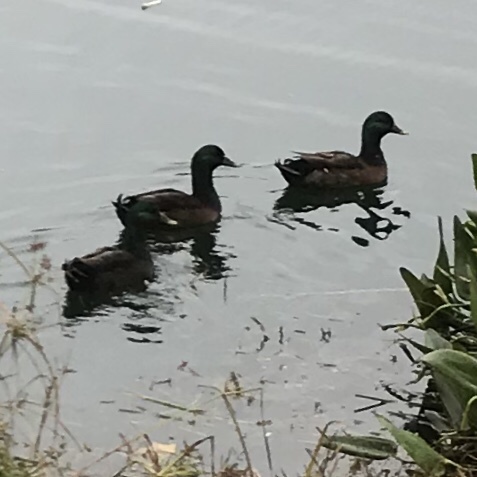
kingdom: Animalia
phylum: Chordata
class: Aves
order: Anseriformes
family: Anatidae
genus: Anas
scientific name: Anas platyrhynchos
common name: Mallard
